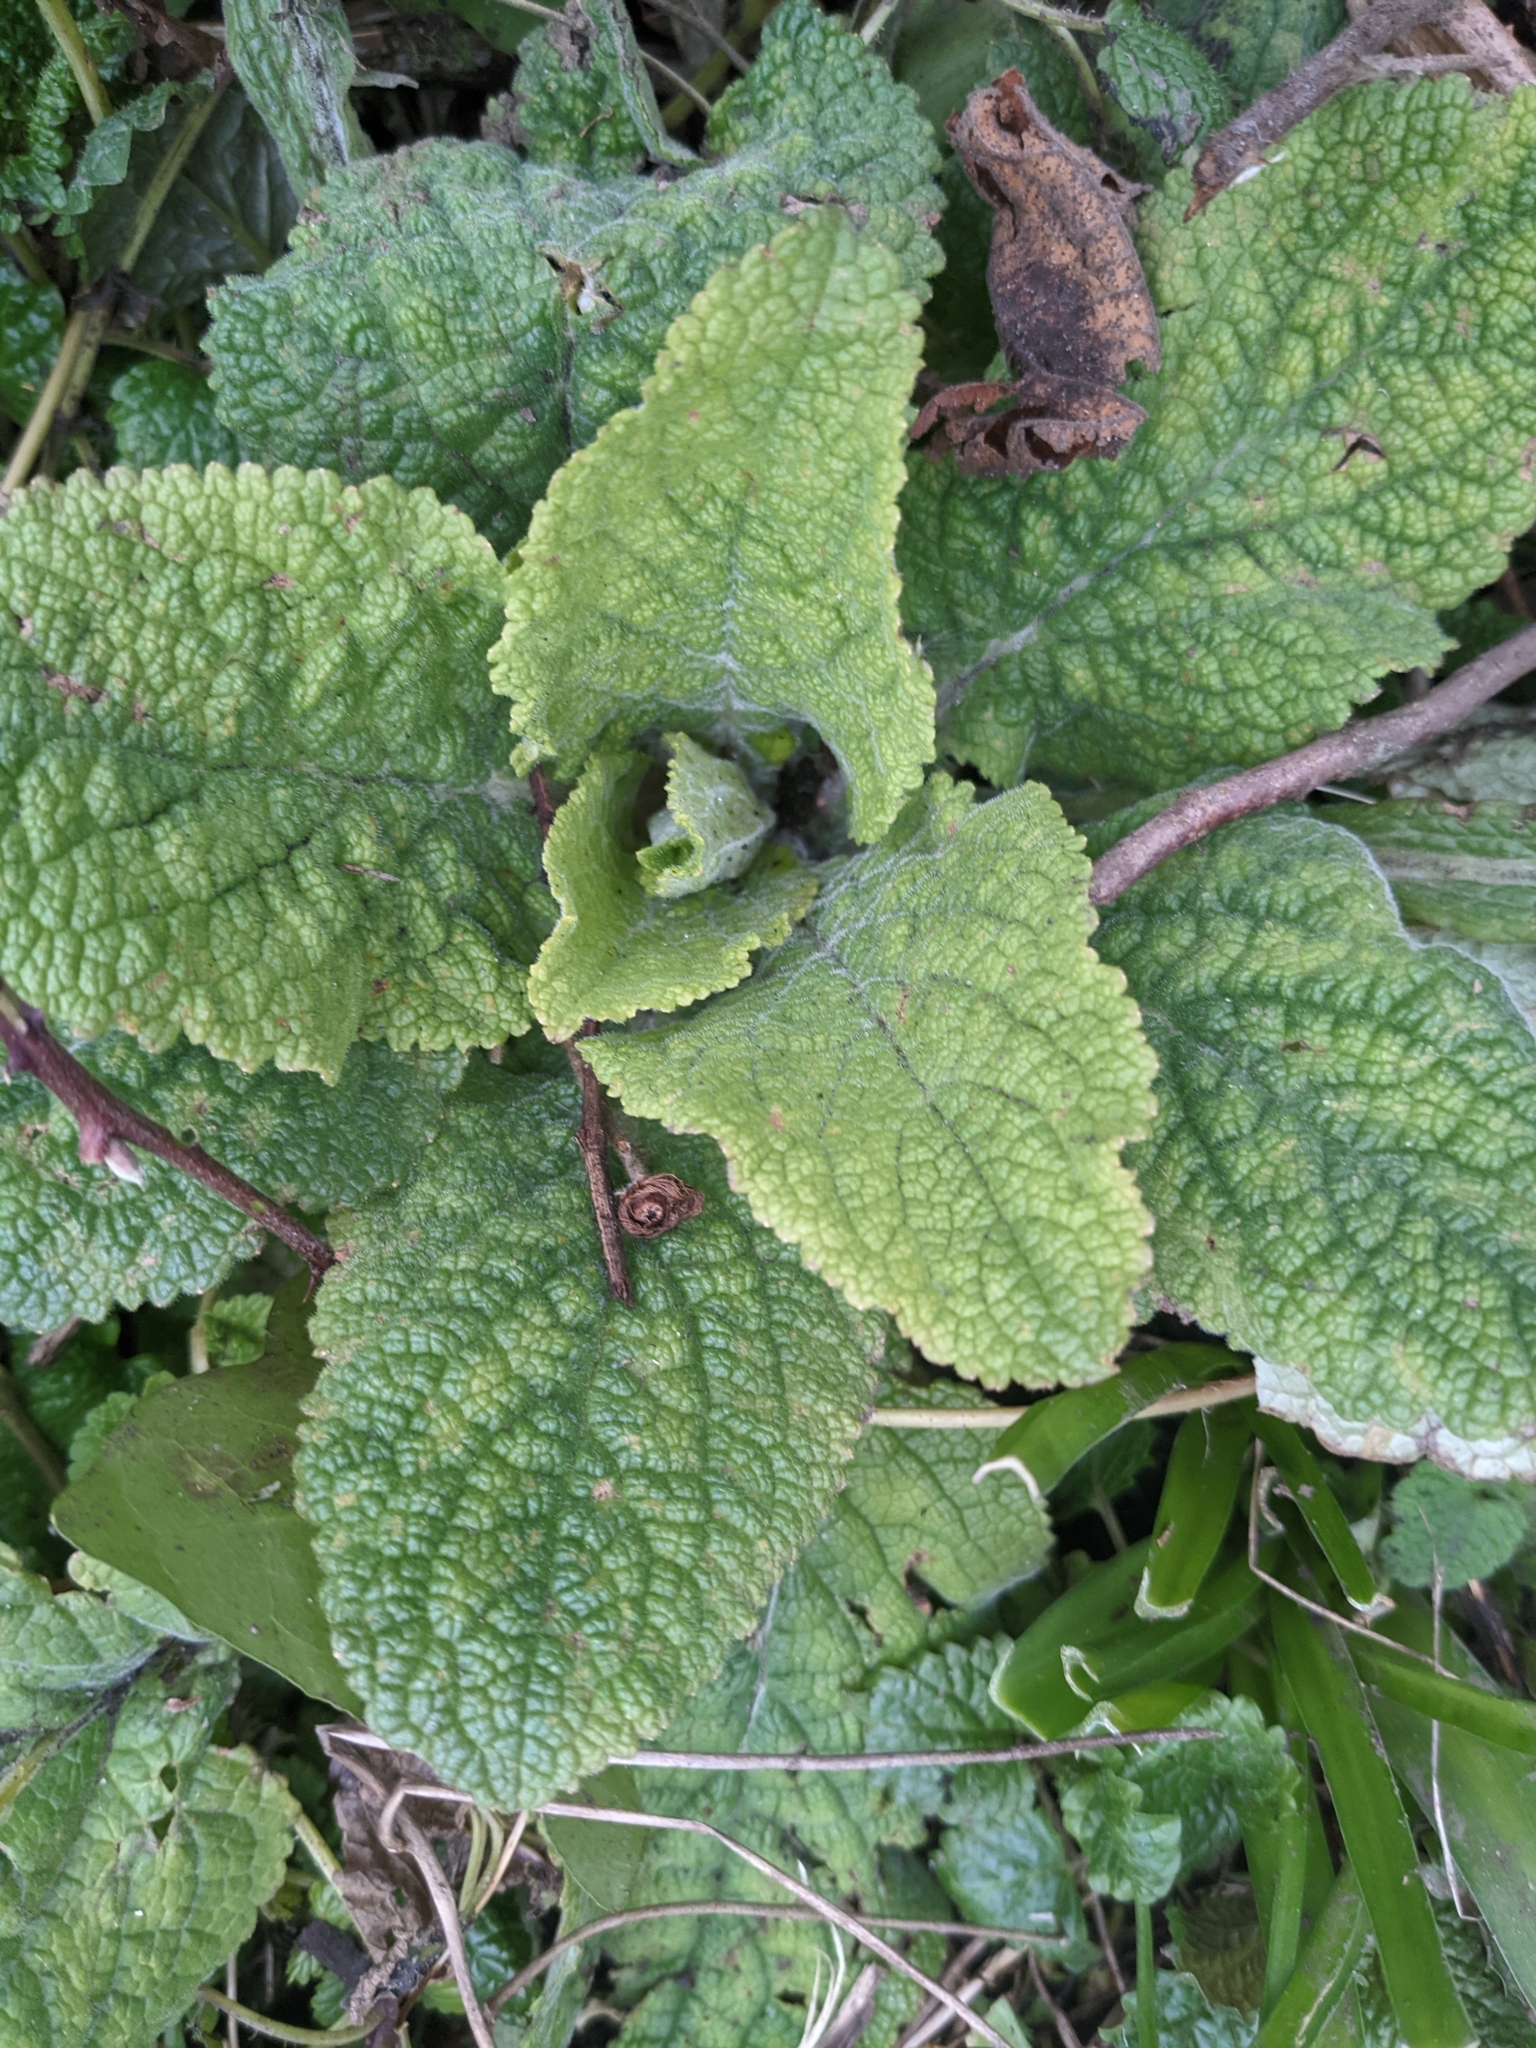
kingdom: Plantae
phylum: Tracheophyta
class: Magnoliopsida
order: Lamiales
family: Plantaginaceae
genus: Digitalis
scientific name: Digitalis purpurea
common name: Foxglove
